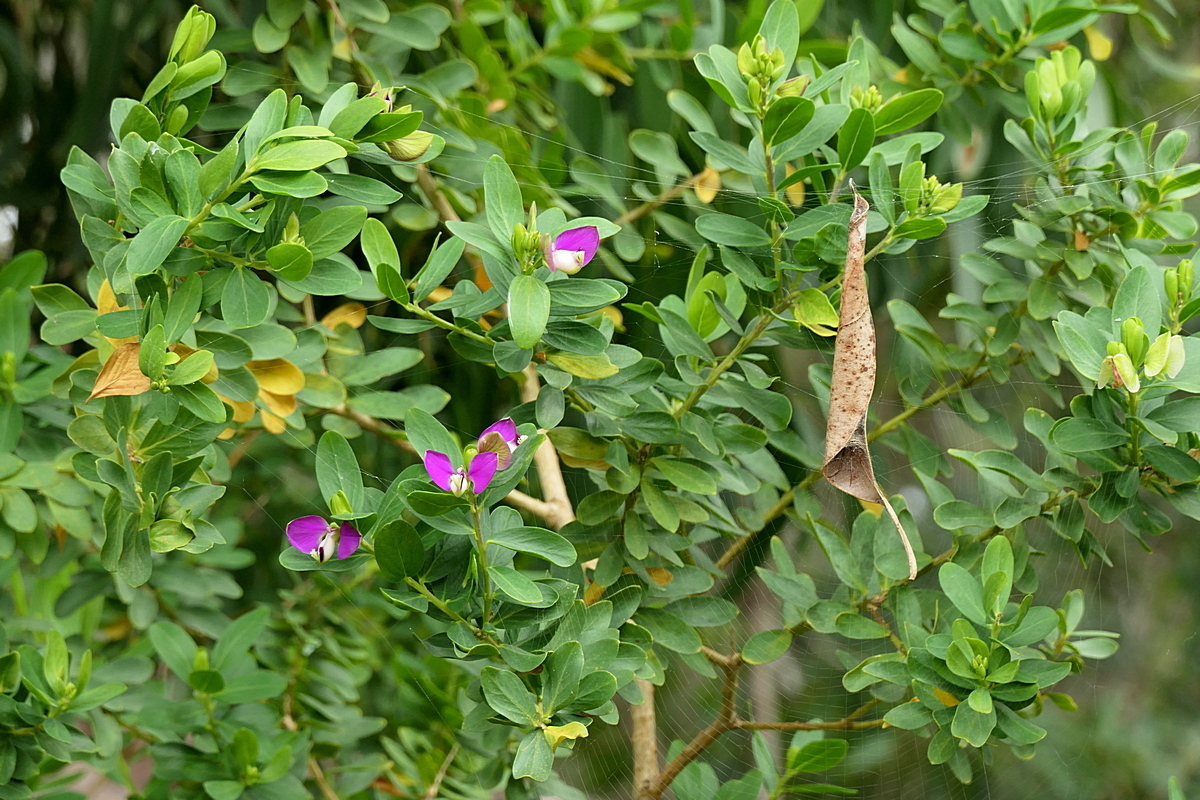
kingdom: Plantae
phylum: Tracheophyta
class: Magnoliopsida
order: Fabales
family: Polygalaceae
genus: Polygala
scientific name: Polygala myrtifolia
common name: Myrtle-leaf milkwort
